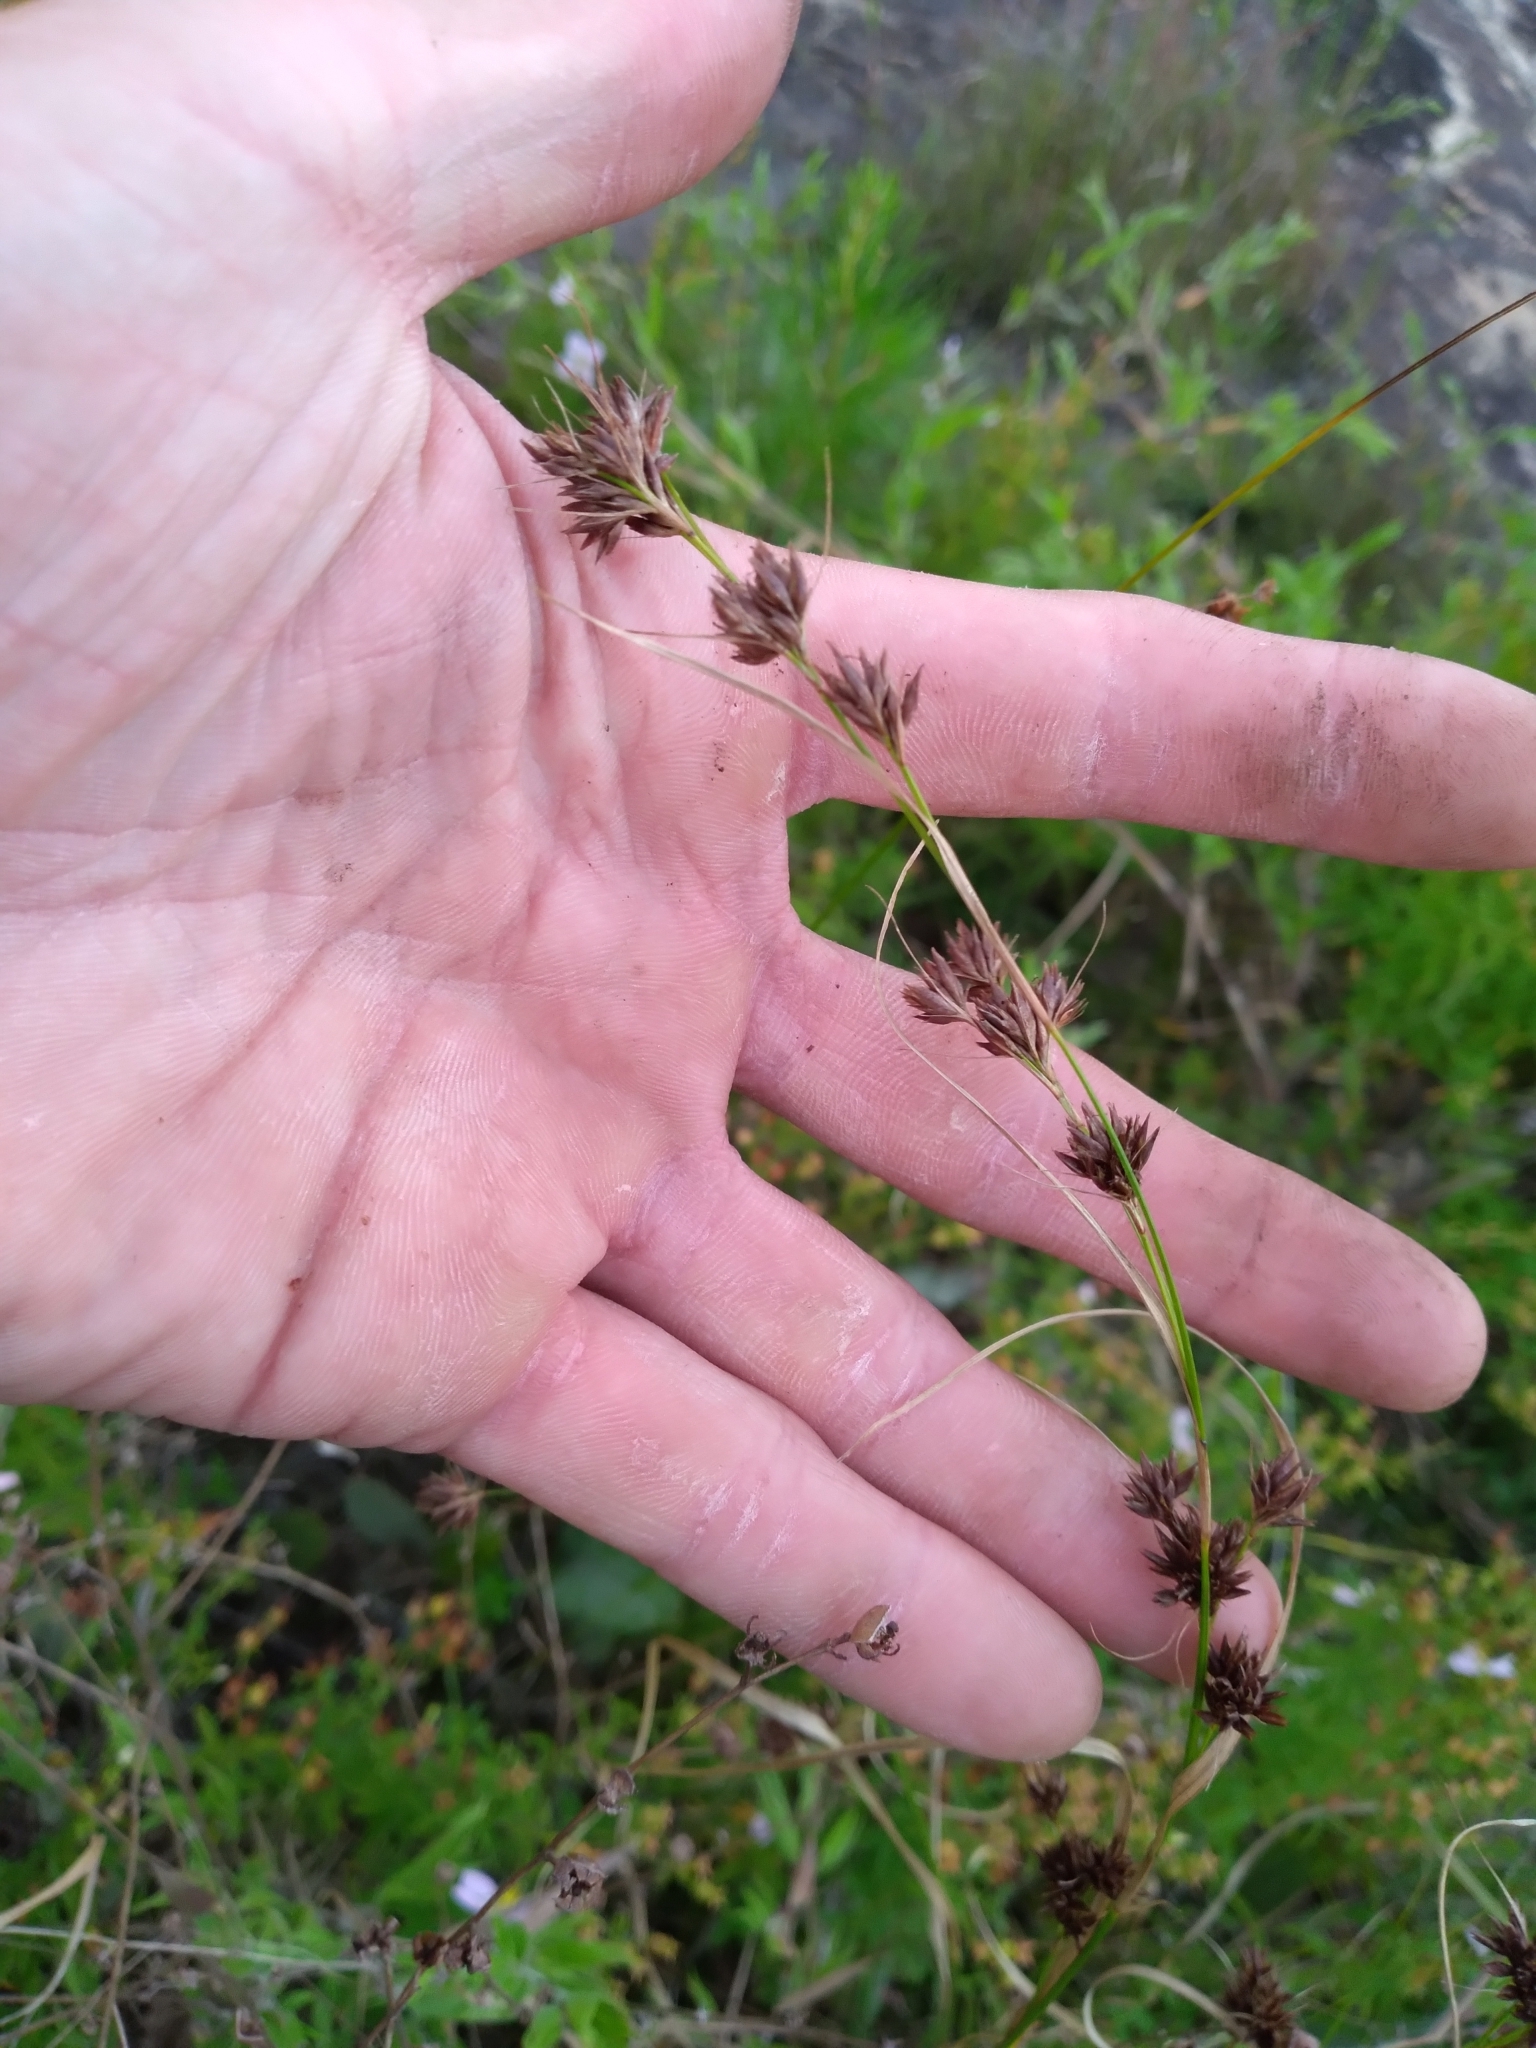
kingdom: Plantae
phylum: Tracheophyta
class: Liliopsida
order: Poales
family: Cyperaceae
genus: Rhynchospora
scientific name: Rhynchospora glomerata
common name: Cluster beak sedge
